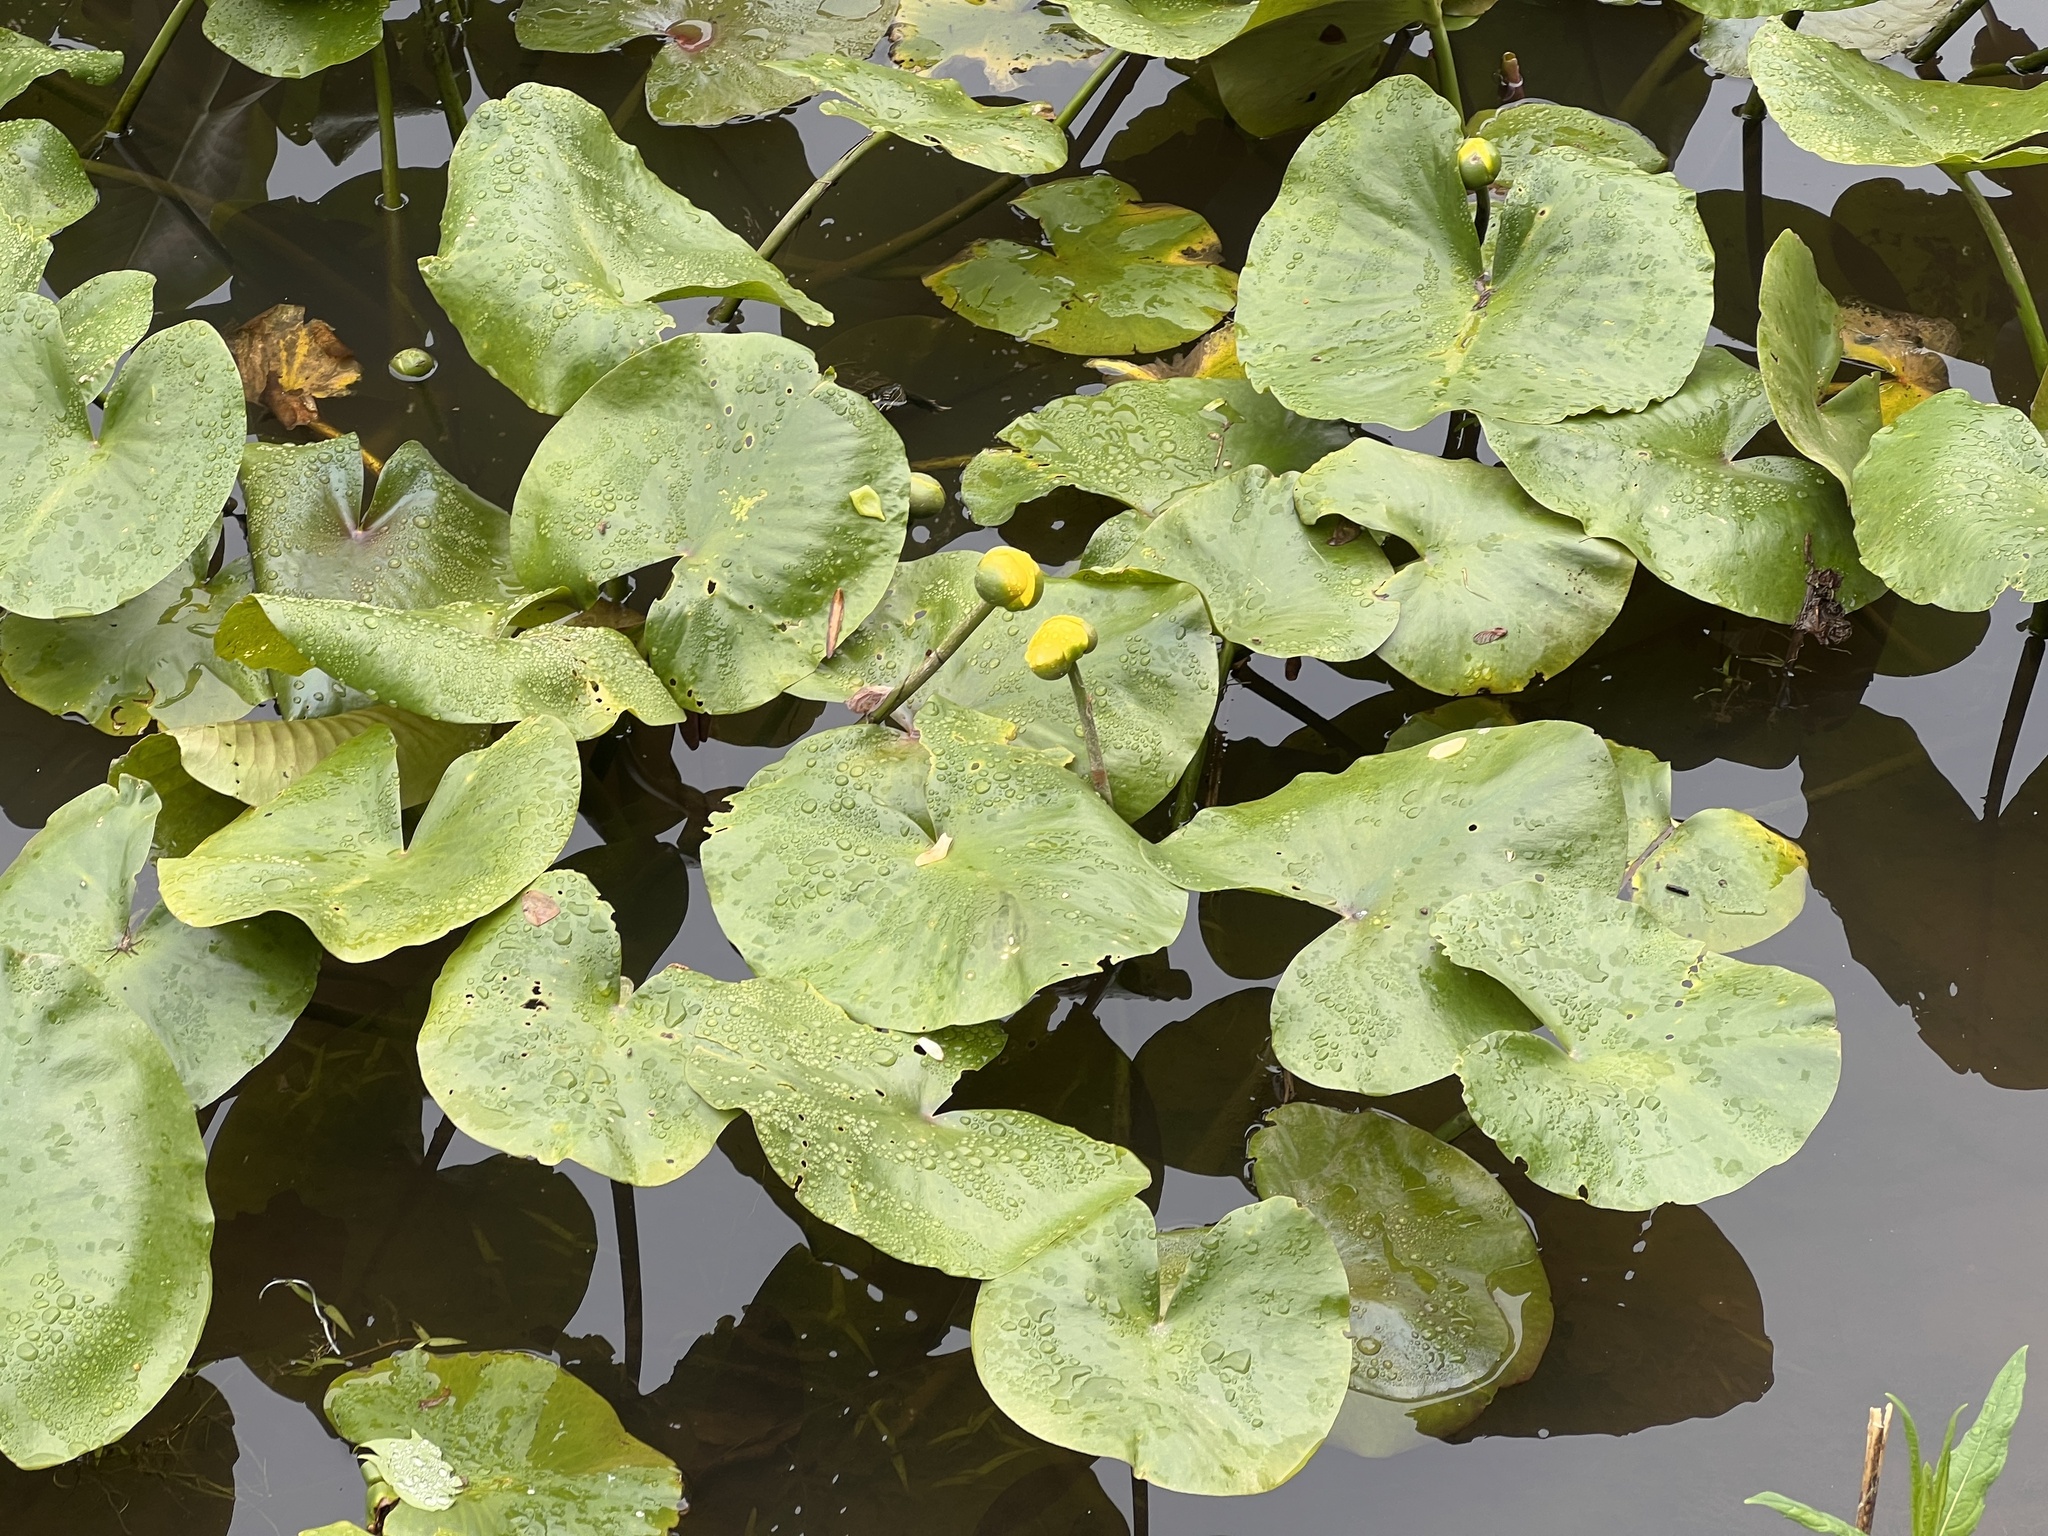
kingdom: Plantae
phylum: Tracheophyta
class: Magnoliopsida
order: Nymphaeales
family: Nymphaeaceae
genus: Nuphar
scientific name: Nuphar advena
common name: Spatter-dock
